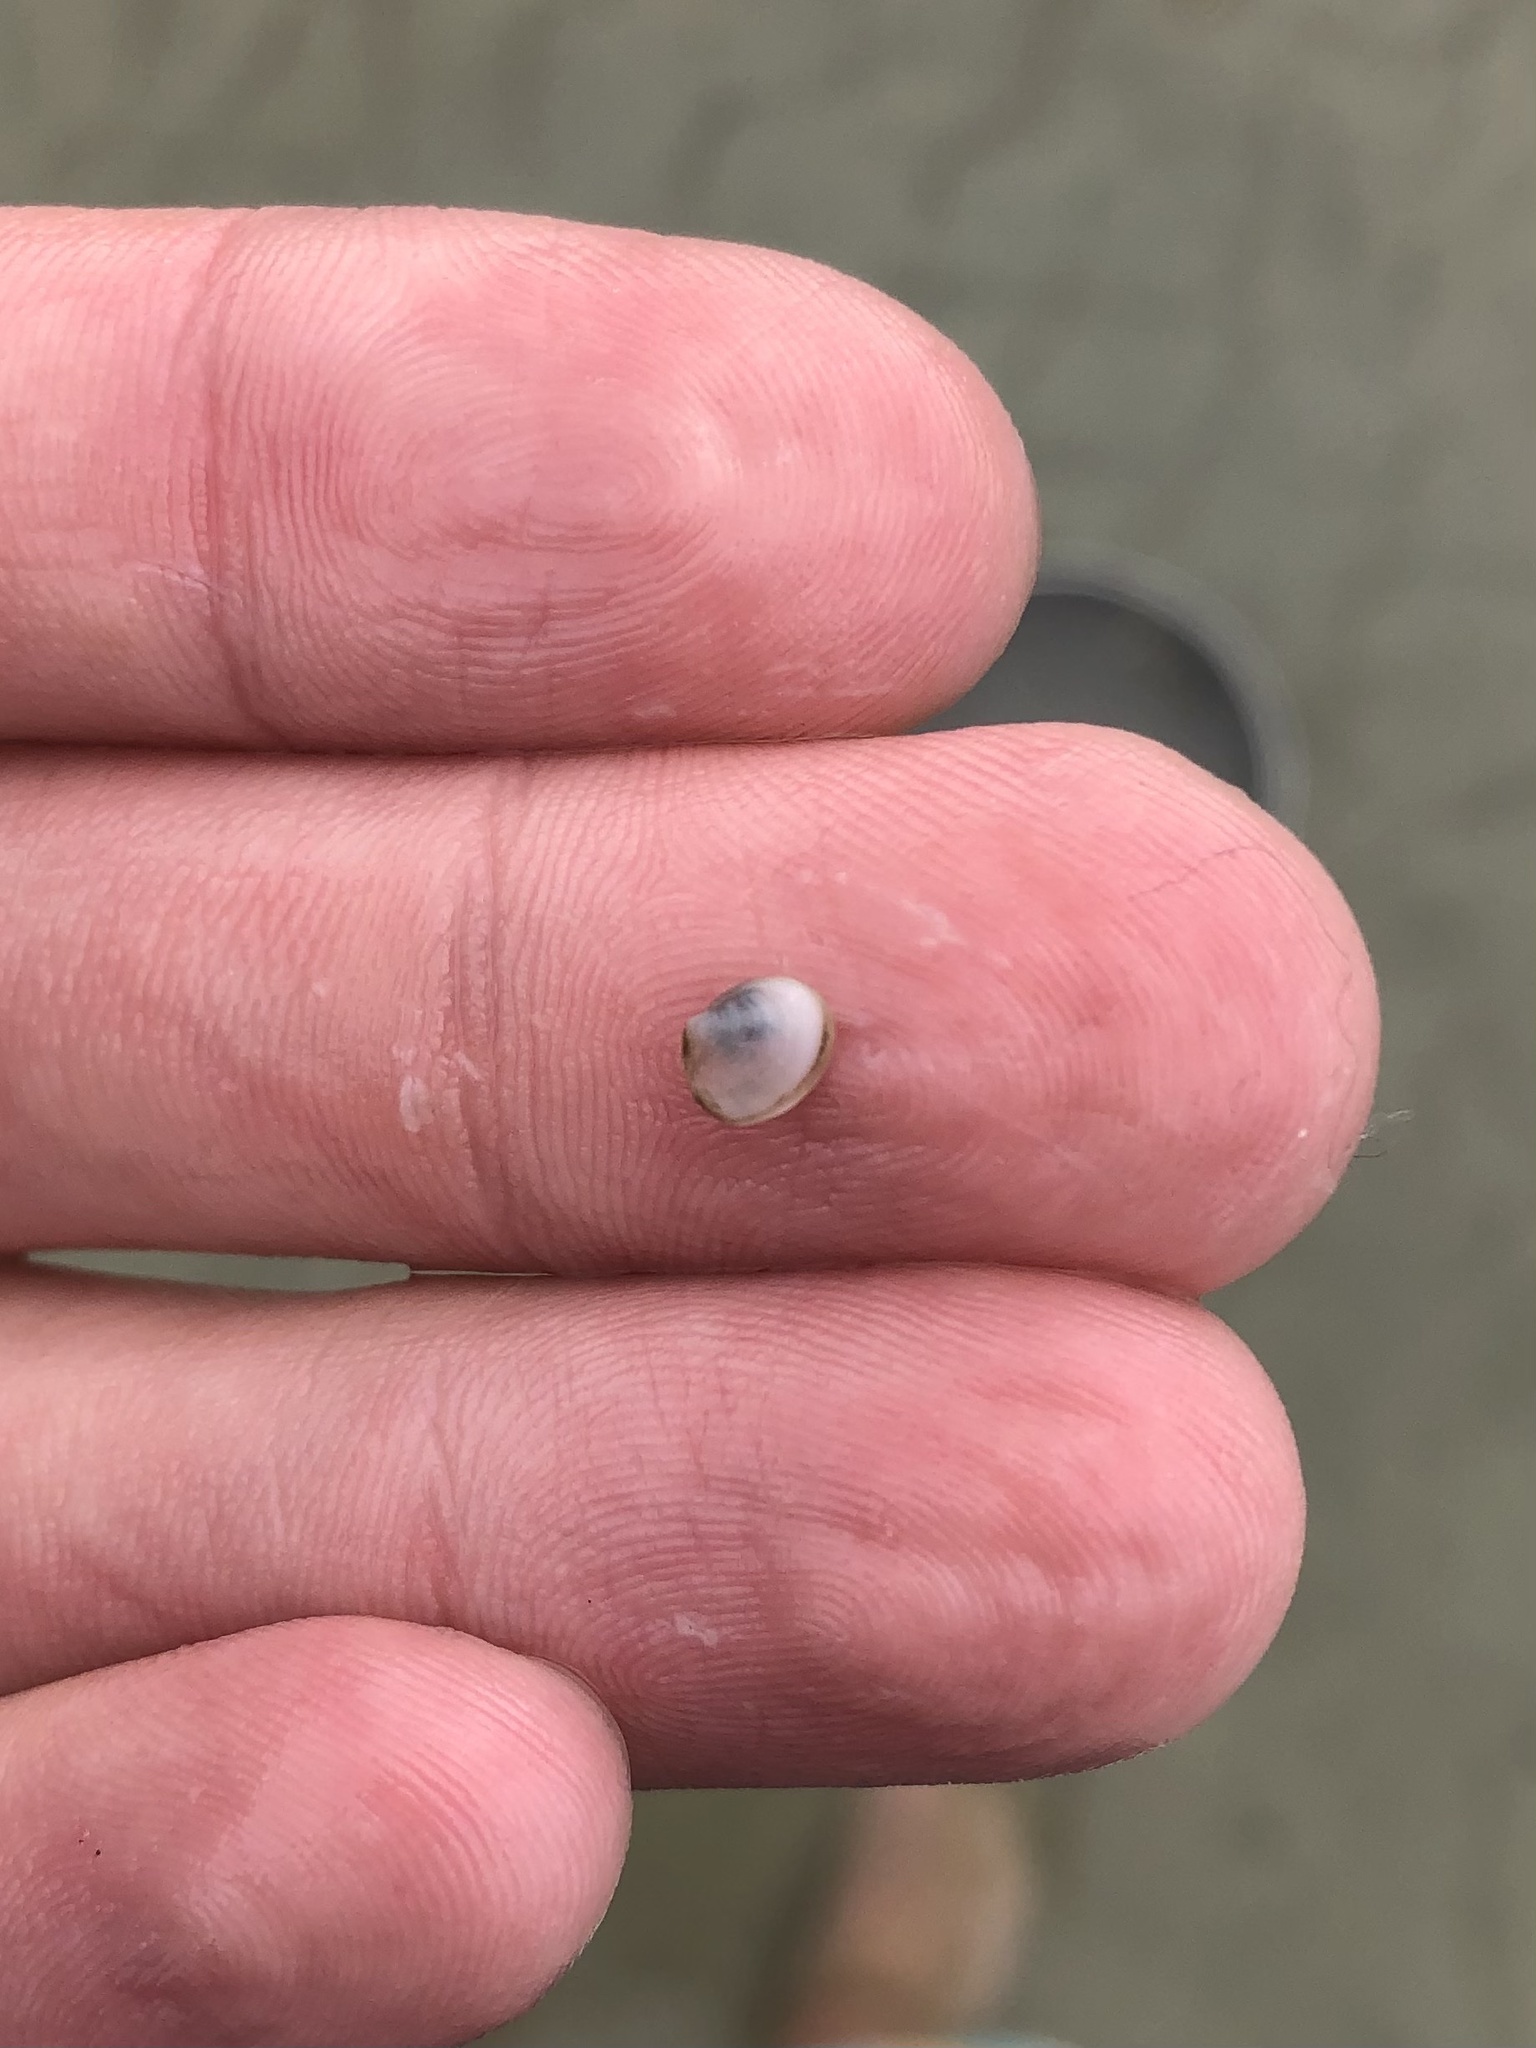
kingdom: Animalia
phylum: Mollusca
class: Bivalvia
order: Cardiida
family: Semelidae
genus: Abra
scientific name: Abra aequalis
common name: Common atlantic abra
